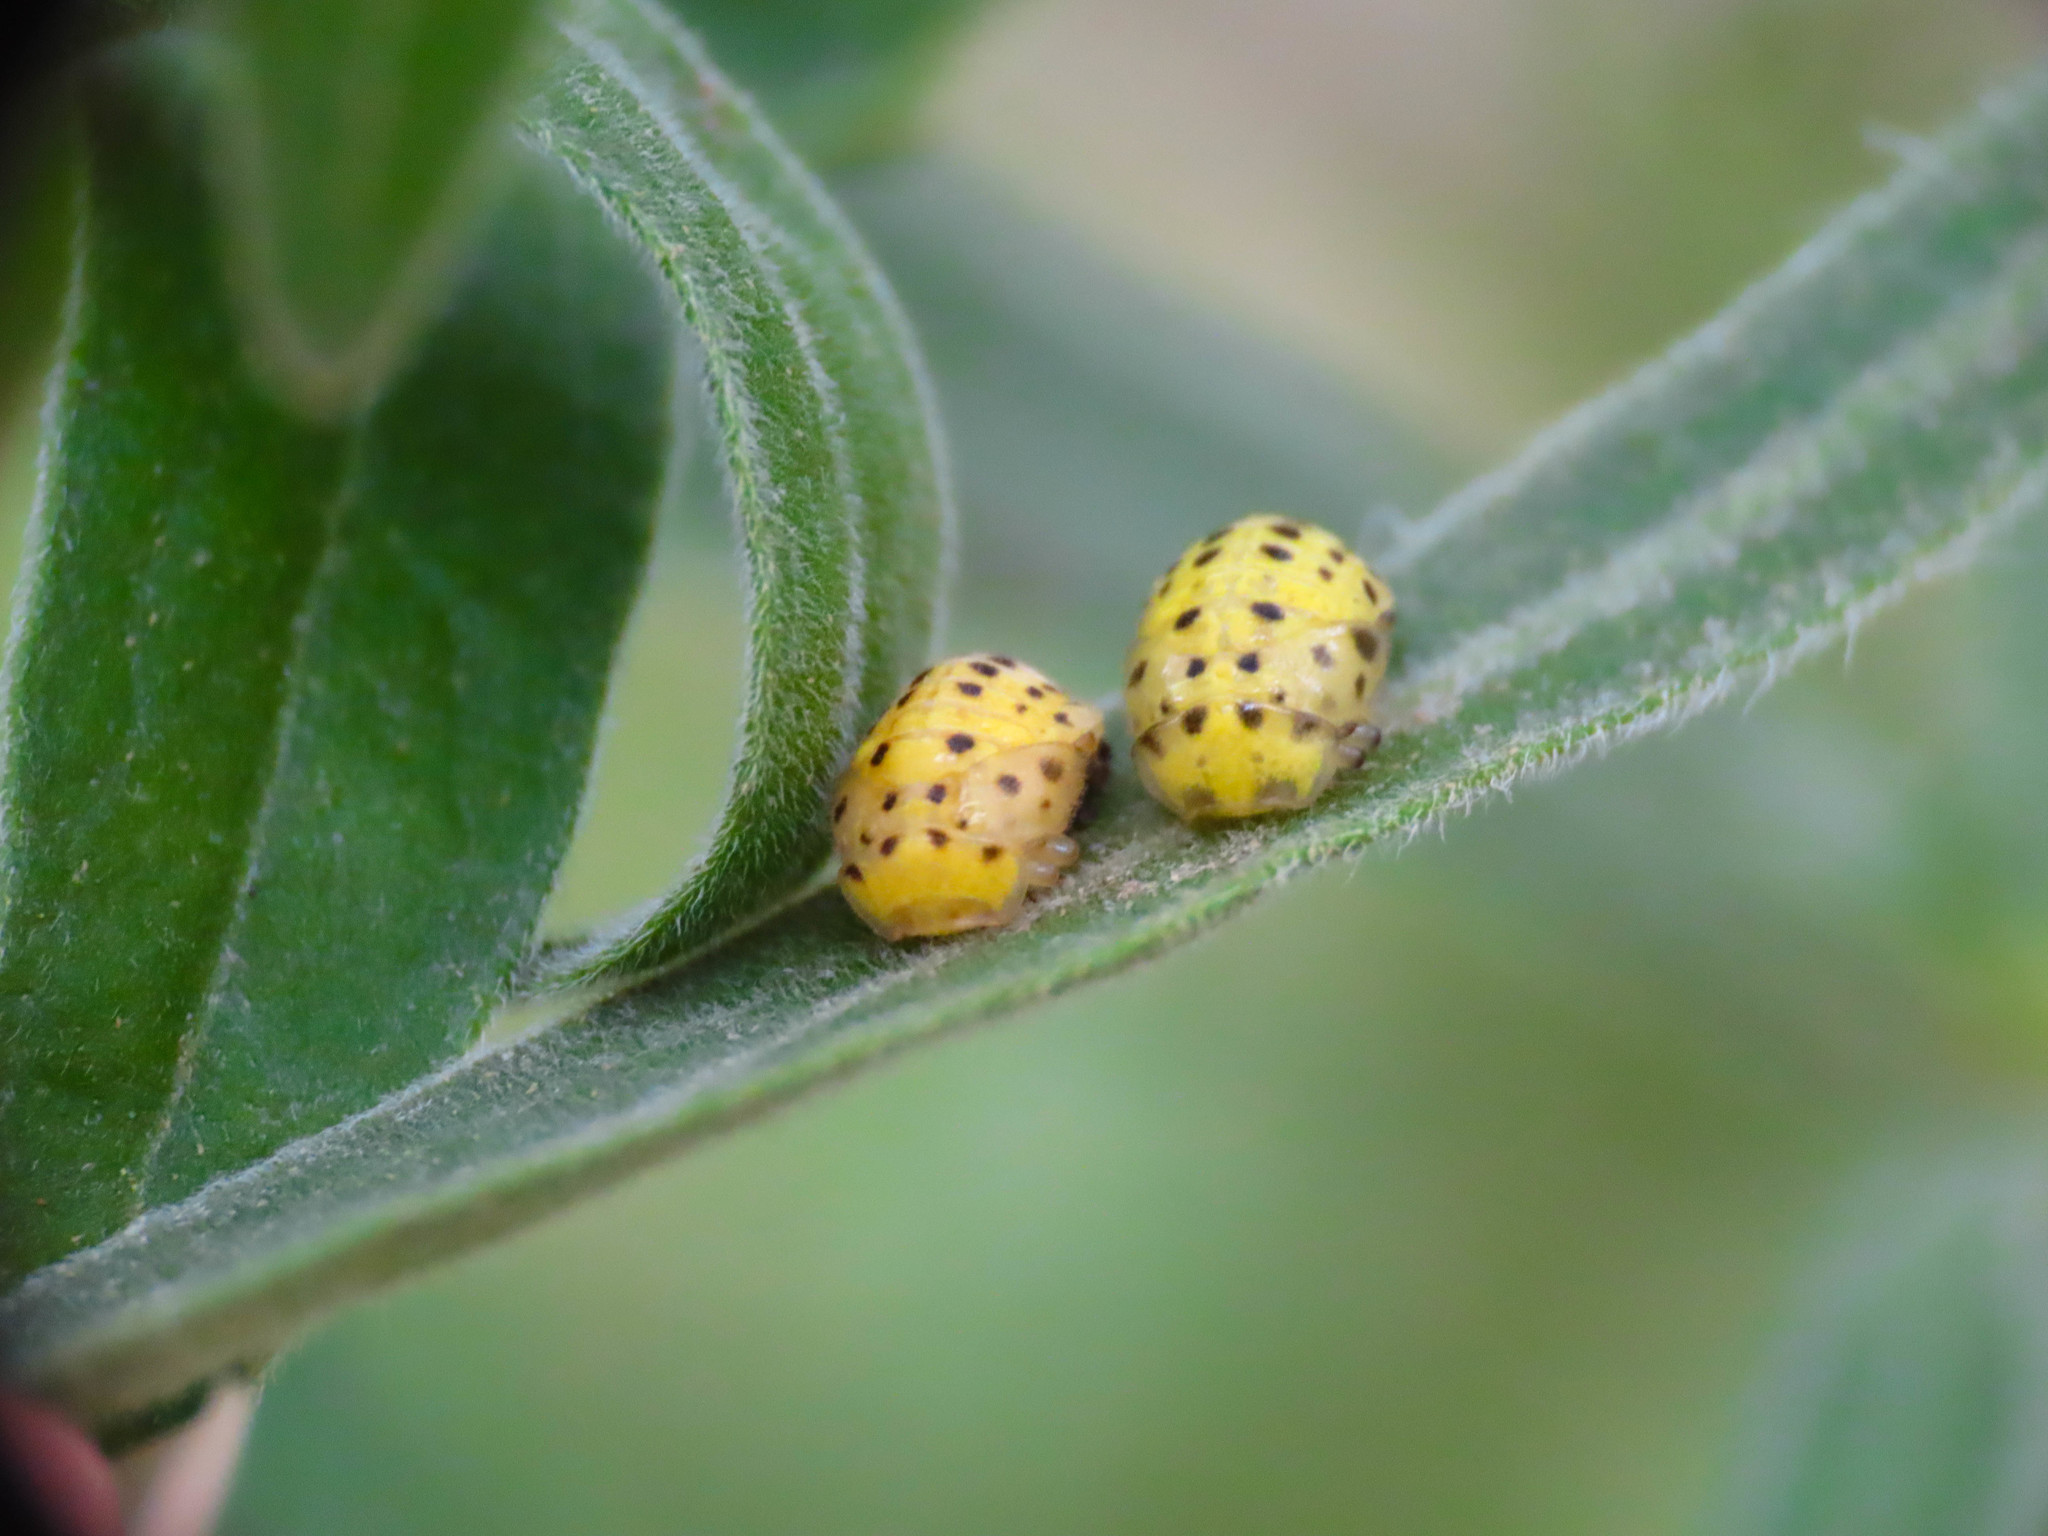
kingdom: Animalia
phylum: Arthropoda
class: Insecta
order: Coleoptera
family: Coccinellidae
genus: Psyllobora
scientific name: Psyllobora vigintiduopunctata
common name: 22-spot ladybird
